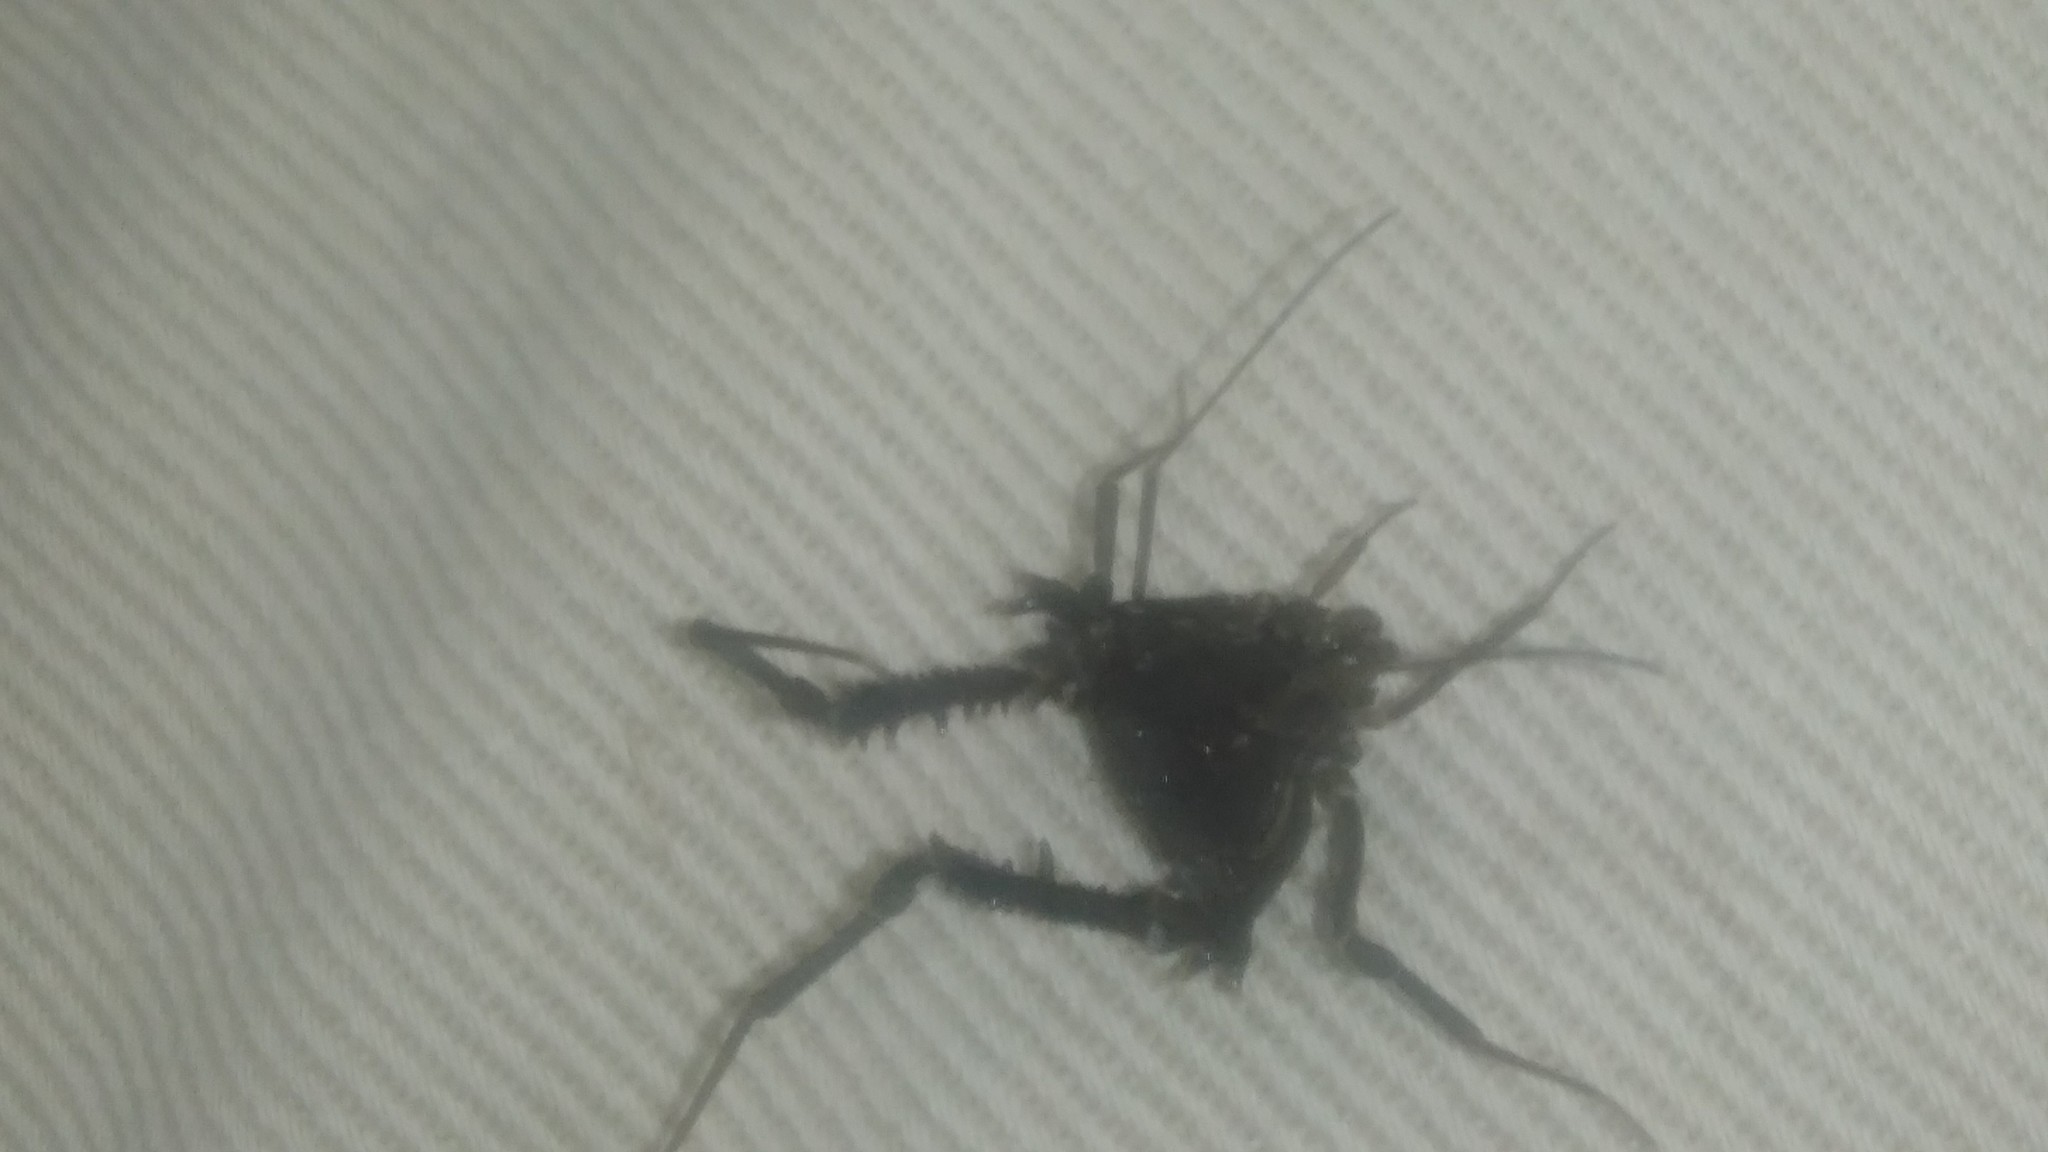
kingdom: Animalia
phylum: Arthropoda
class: Arachnida
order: Opiliones
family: Gonyleptidae
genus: Opisthoplatus
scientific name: Opisthoplatus prospicuus
